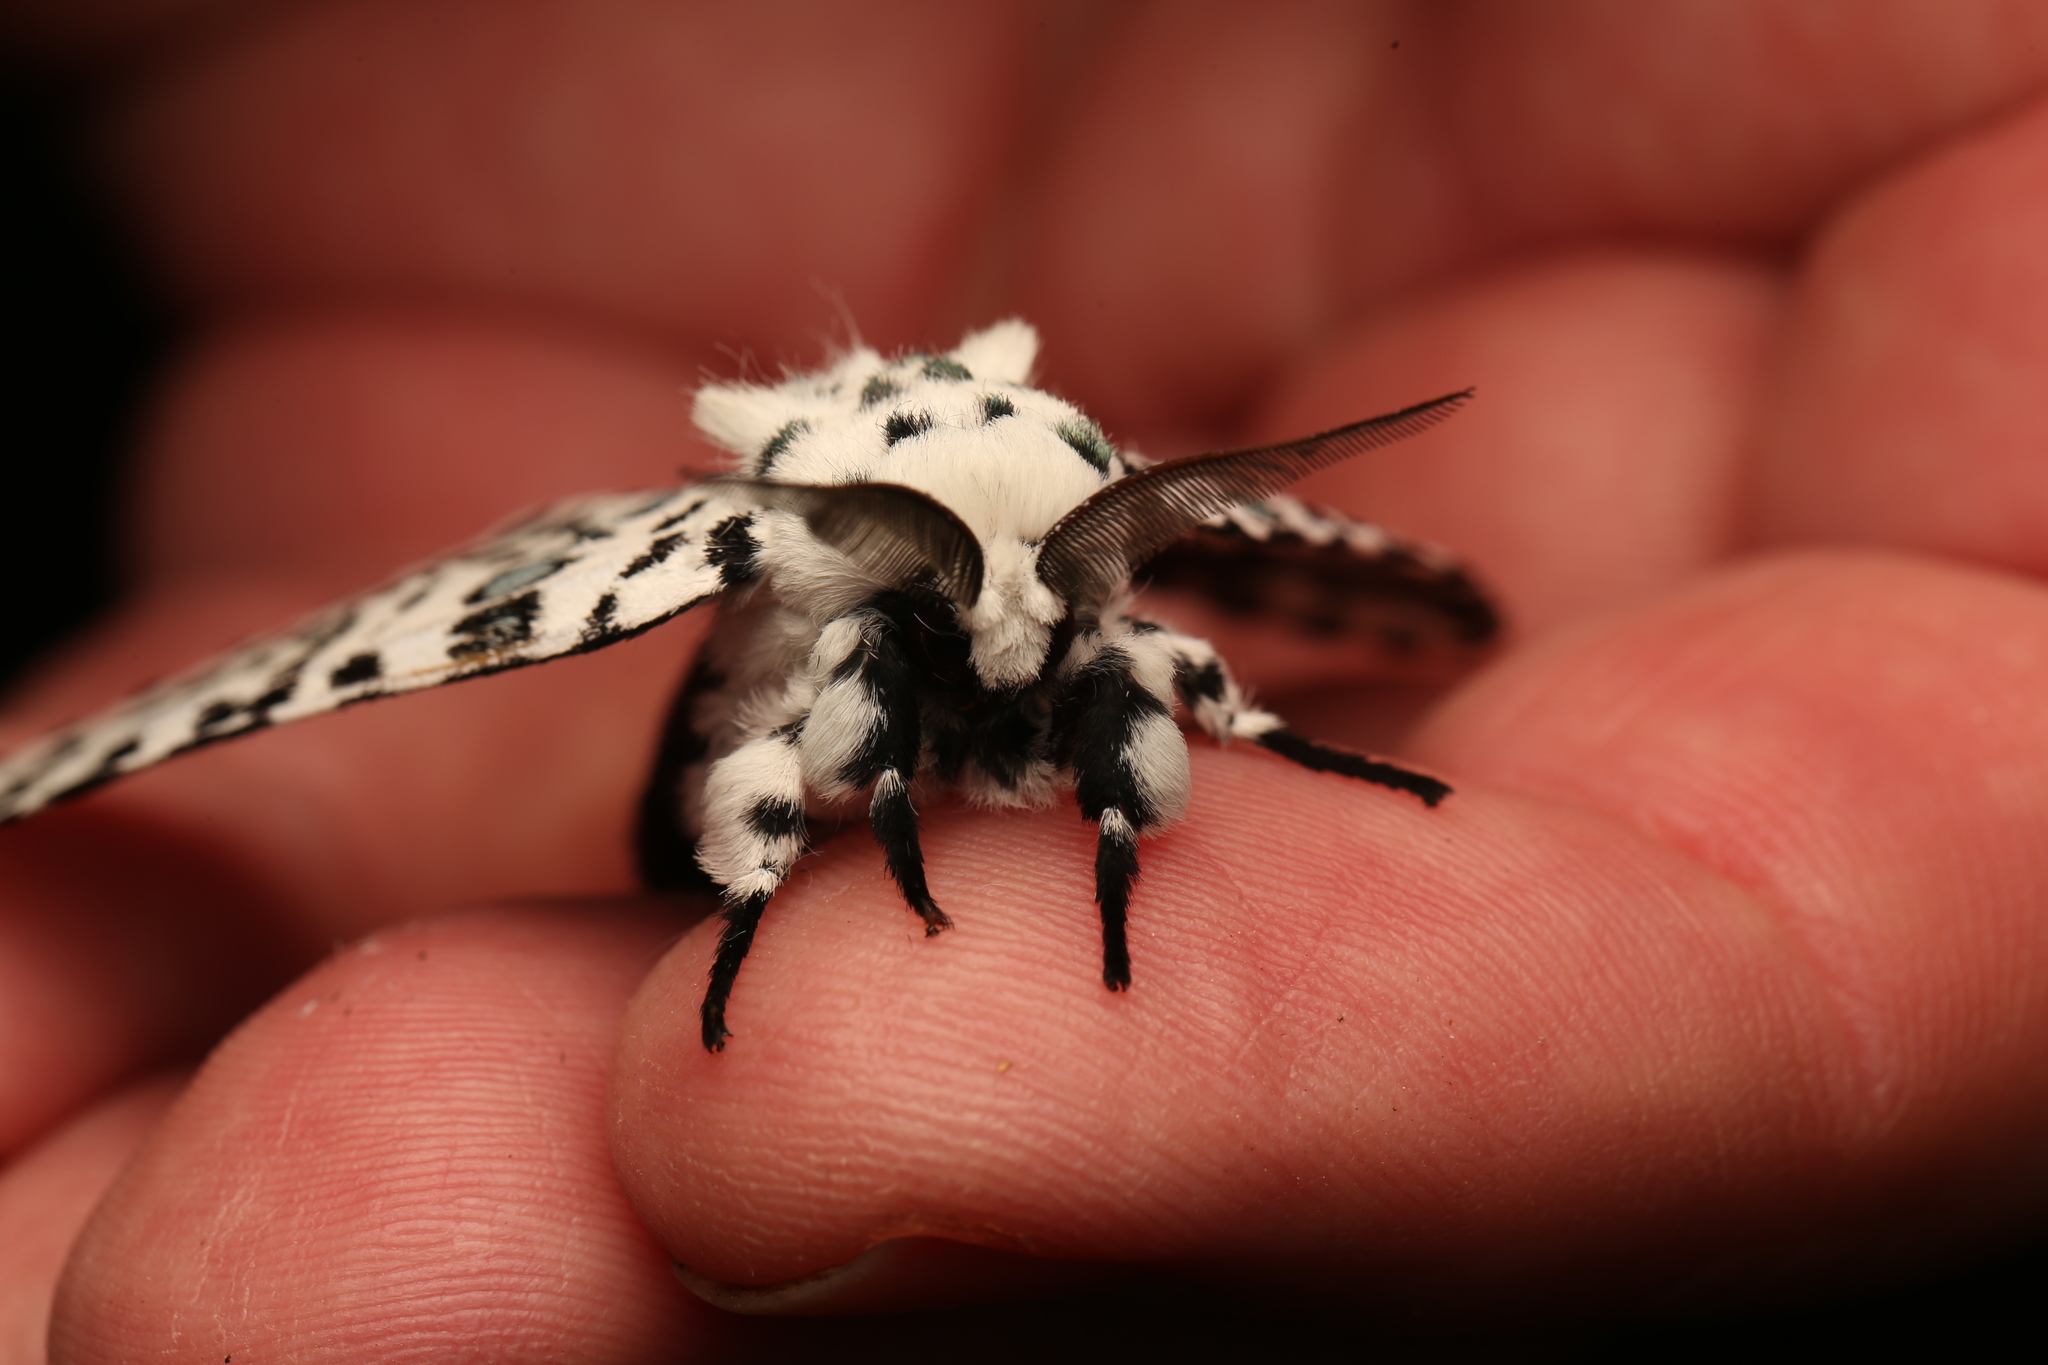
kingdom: Animalia
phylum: Arthropoda
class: Insecta
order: Lepidoptera
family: Notodontidae
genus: Kamalia
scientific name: Kamalia
